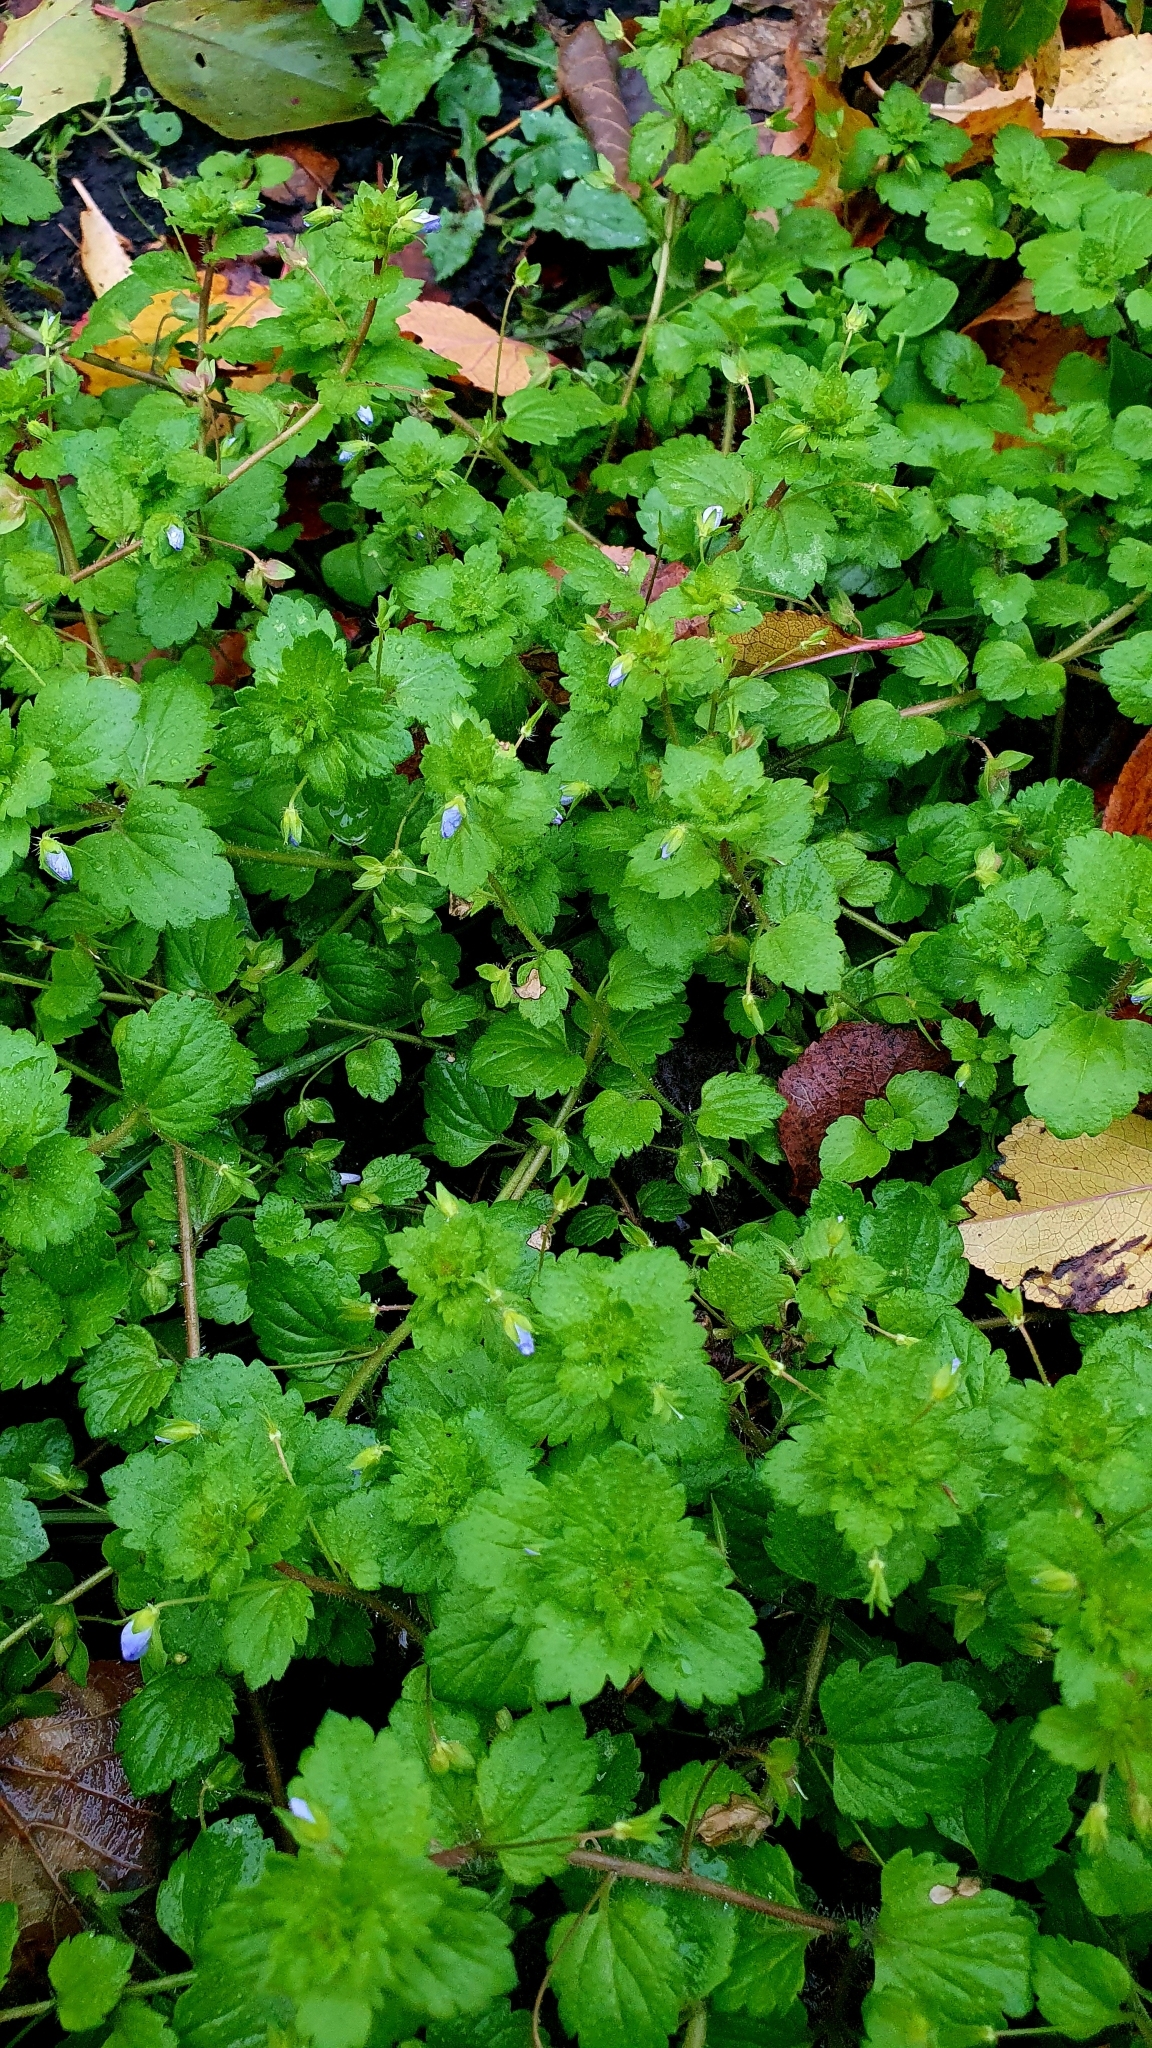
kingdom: Plantae
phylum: Tracheophyta
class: Magnoliopsida
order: Lamiales
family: Plantaginaceae
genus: Veronica
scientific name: Veronica persica
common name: Common field-speedwell
